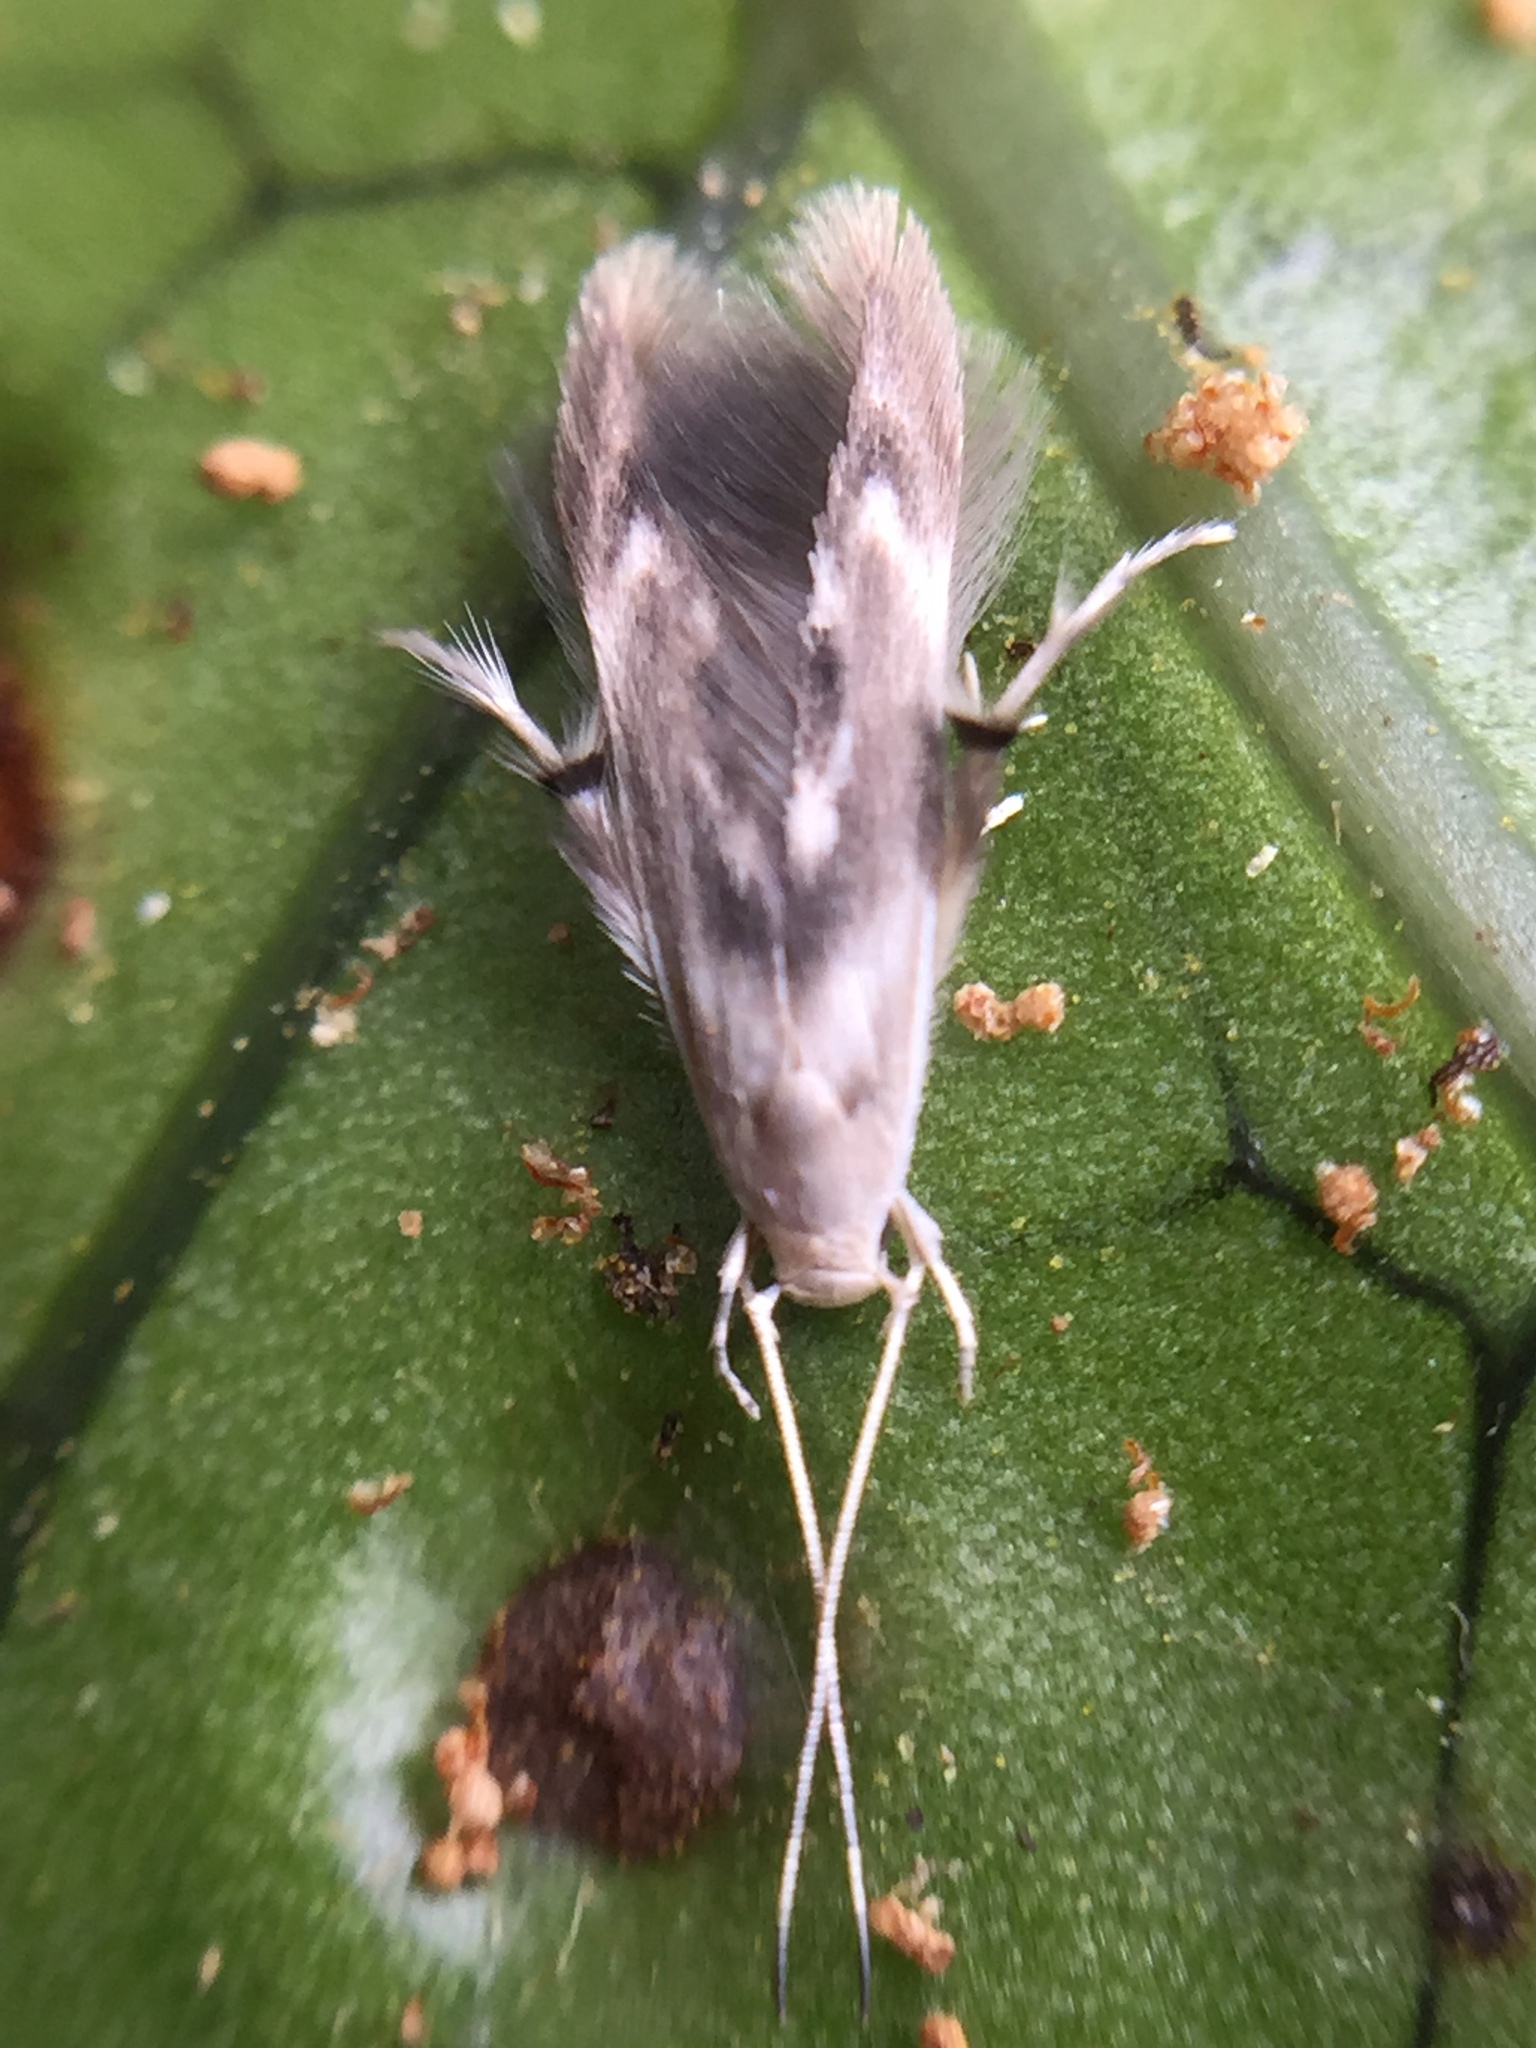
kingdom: Animalia
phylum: Arthropoda
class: Insecta
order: Lepidoptera
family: Stathmopodidae
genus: Thylacosceles
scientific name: Thylacosceles radians
